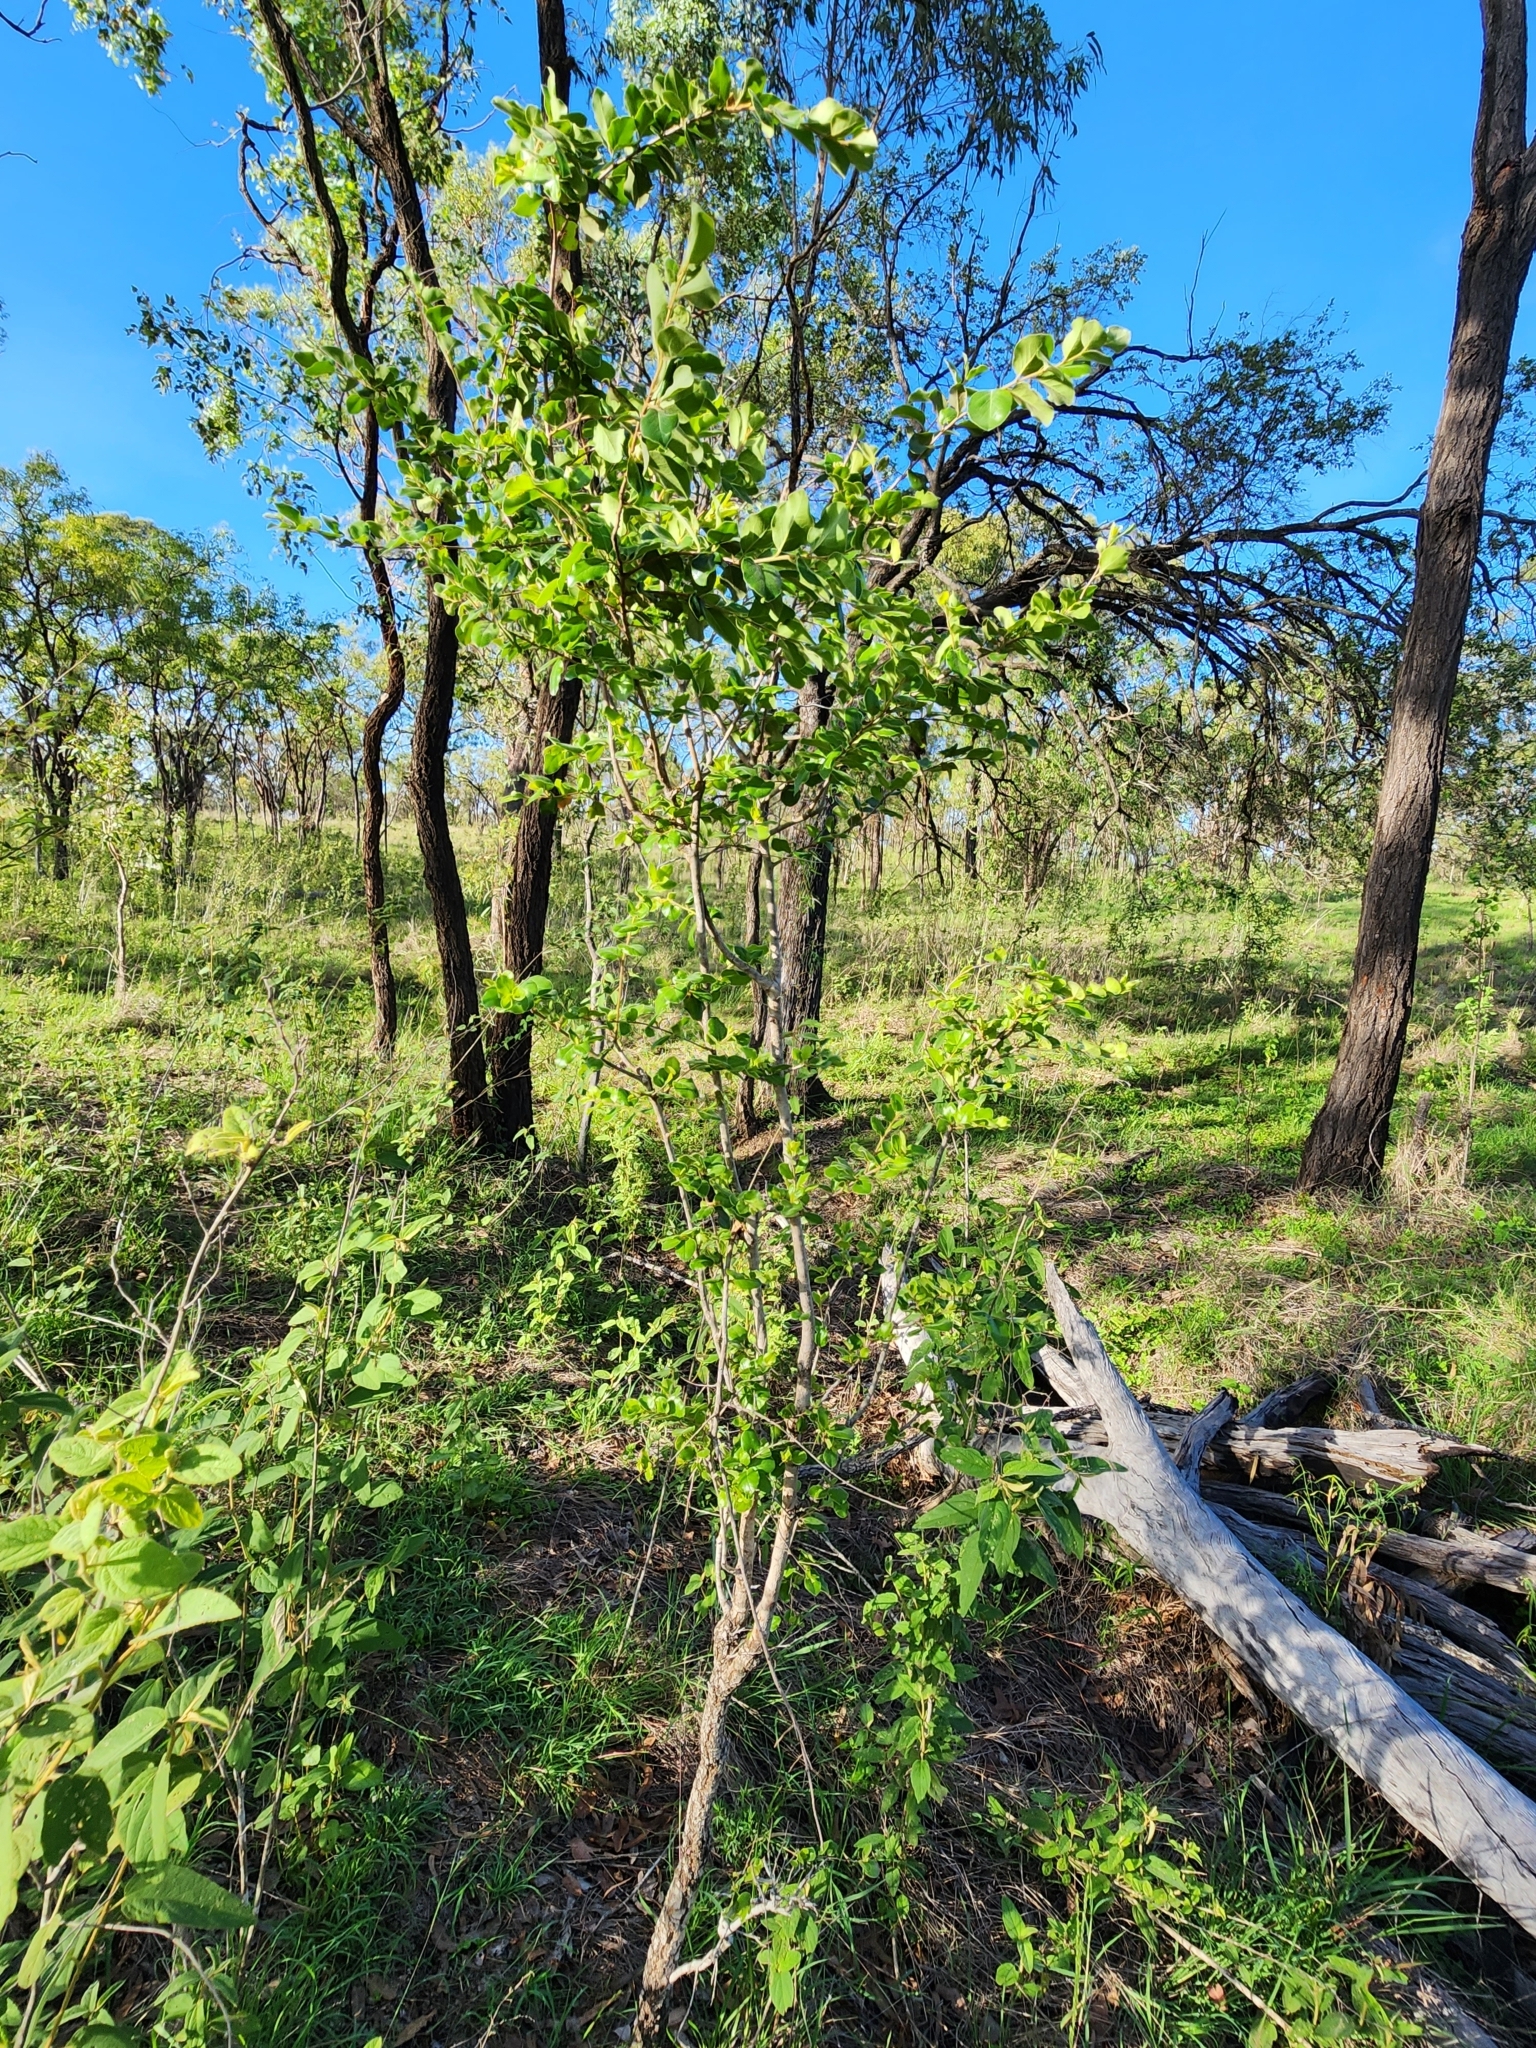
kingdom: Plantae
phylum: Tracheophyta
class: Magnoliopsida
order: Malpighiales
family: Picrodendraceae
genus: Petalostigma
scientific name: Petalostigma pubescens
